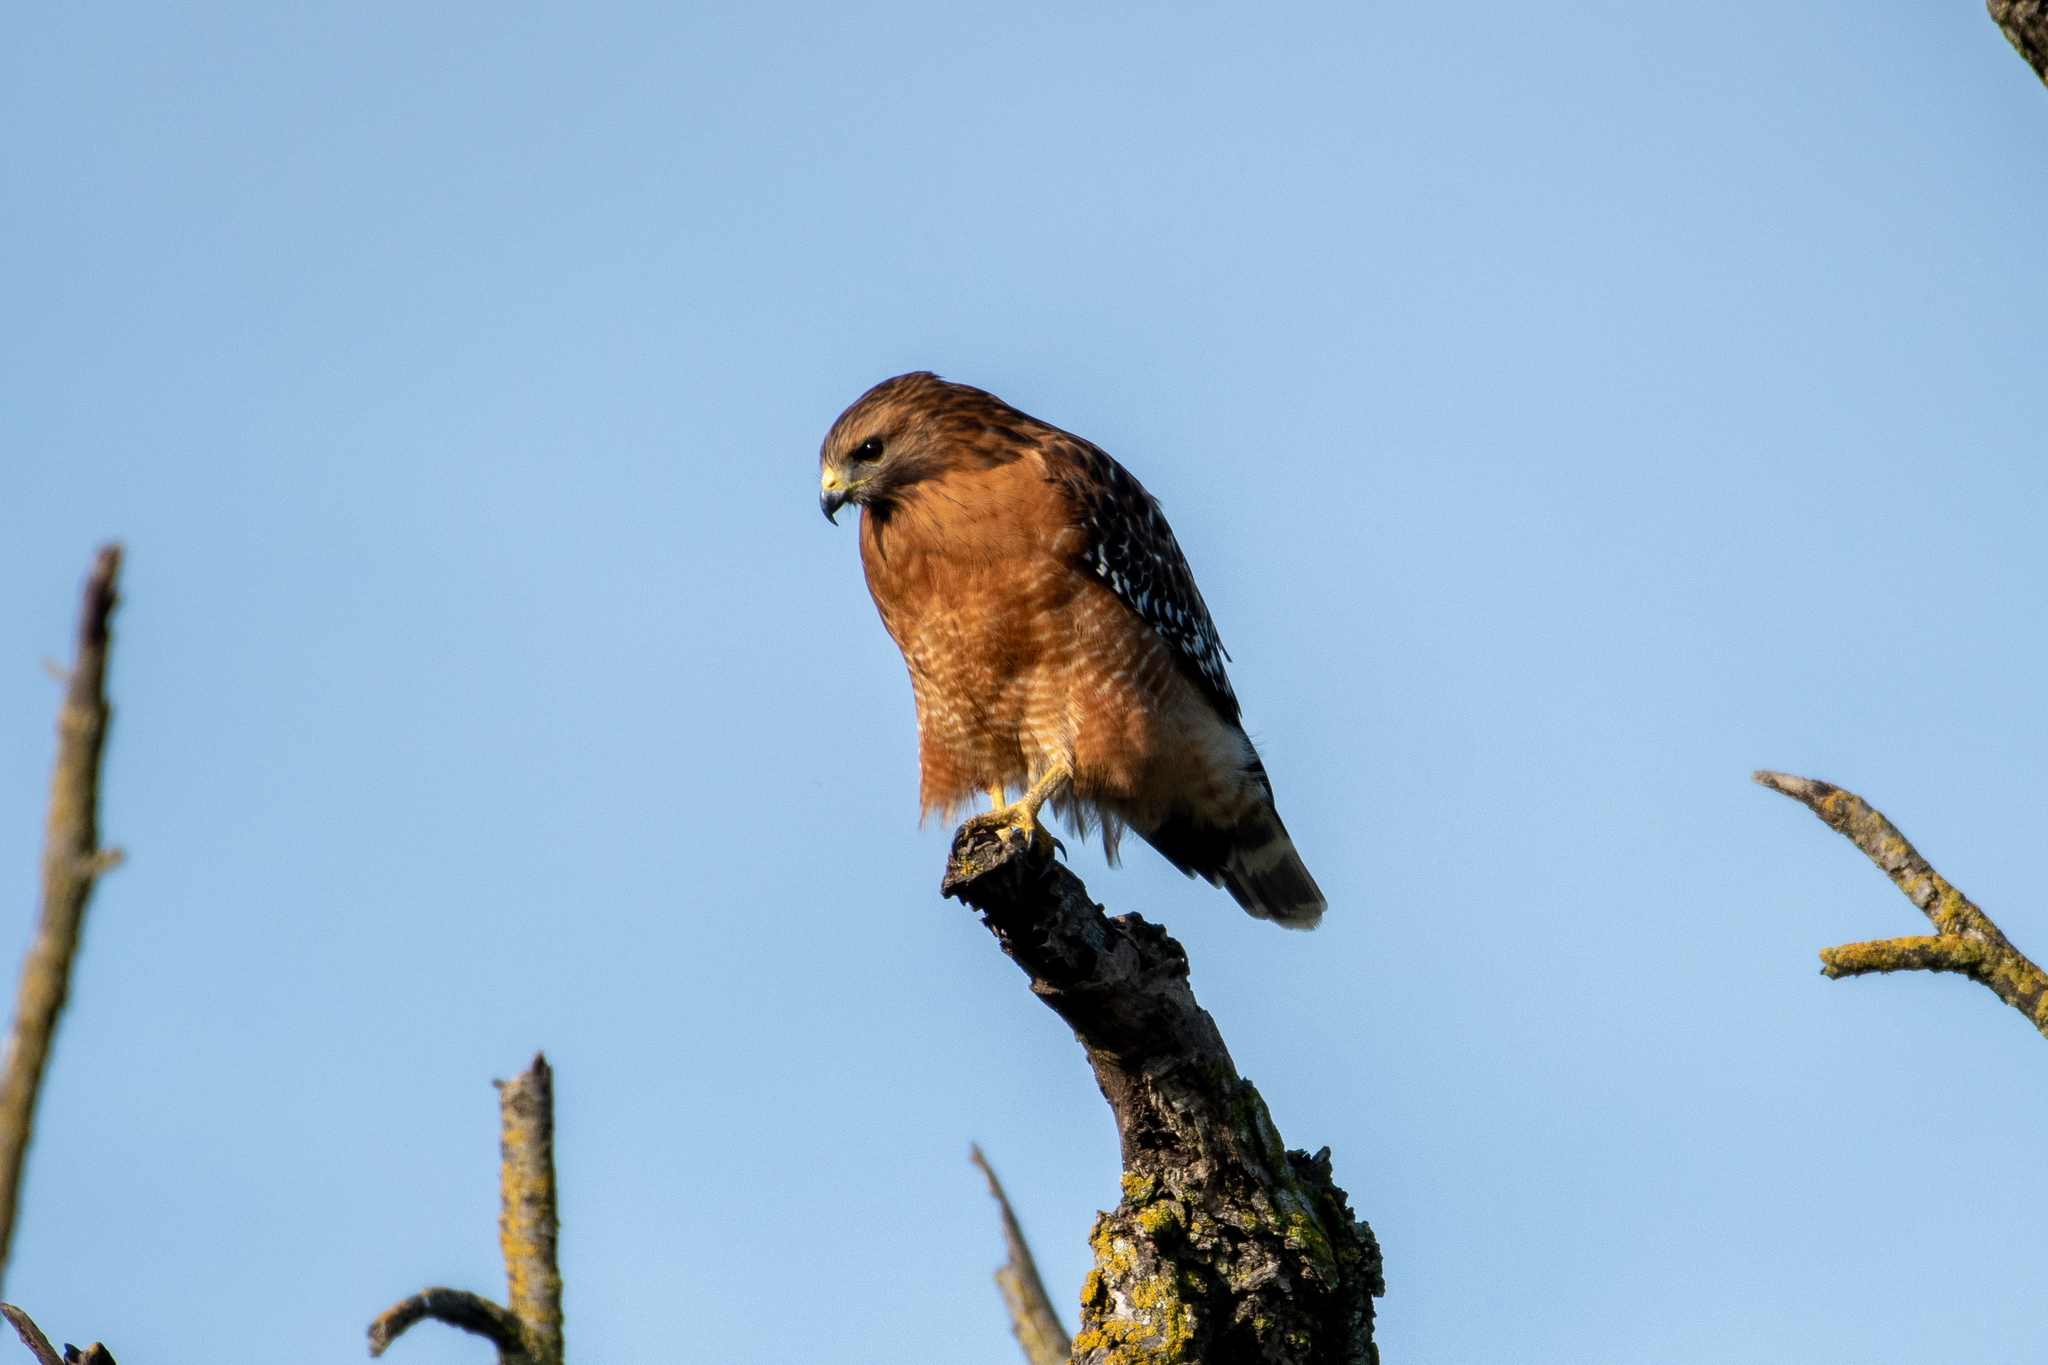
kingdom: Animalia
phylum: Chordata
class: Aves
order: Accipitriformes
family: Accipitridae
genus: Buteo
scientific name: Buteo lineatus
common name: Red-shouldered hawk
